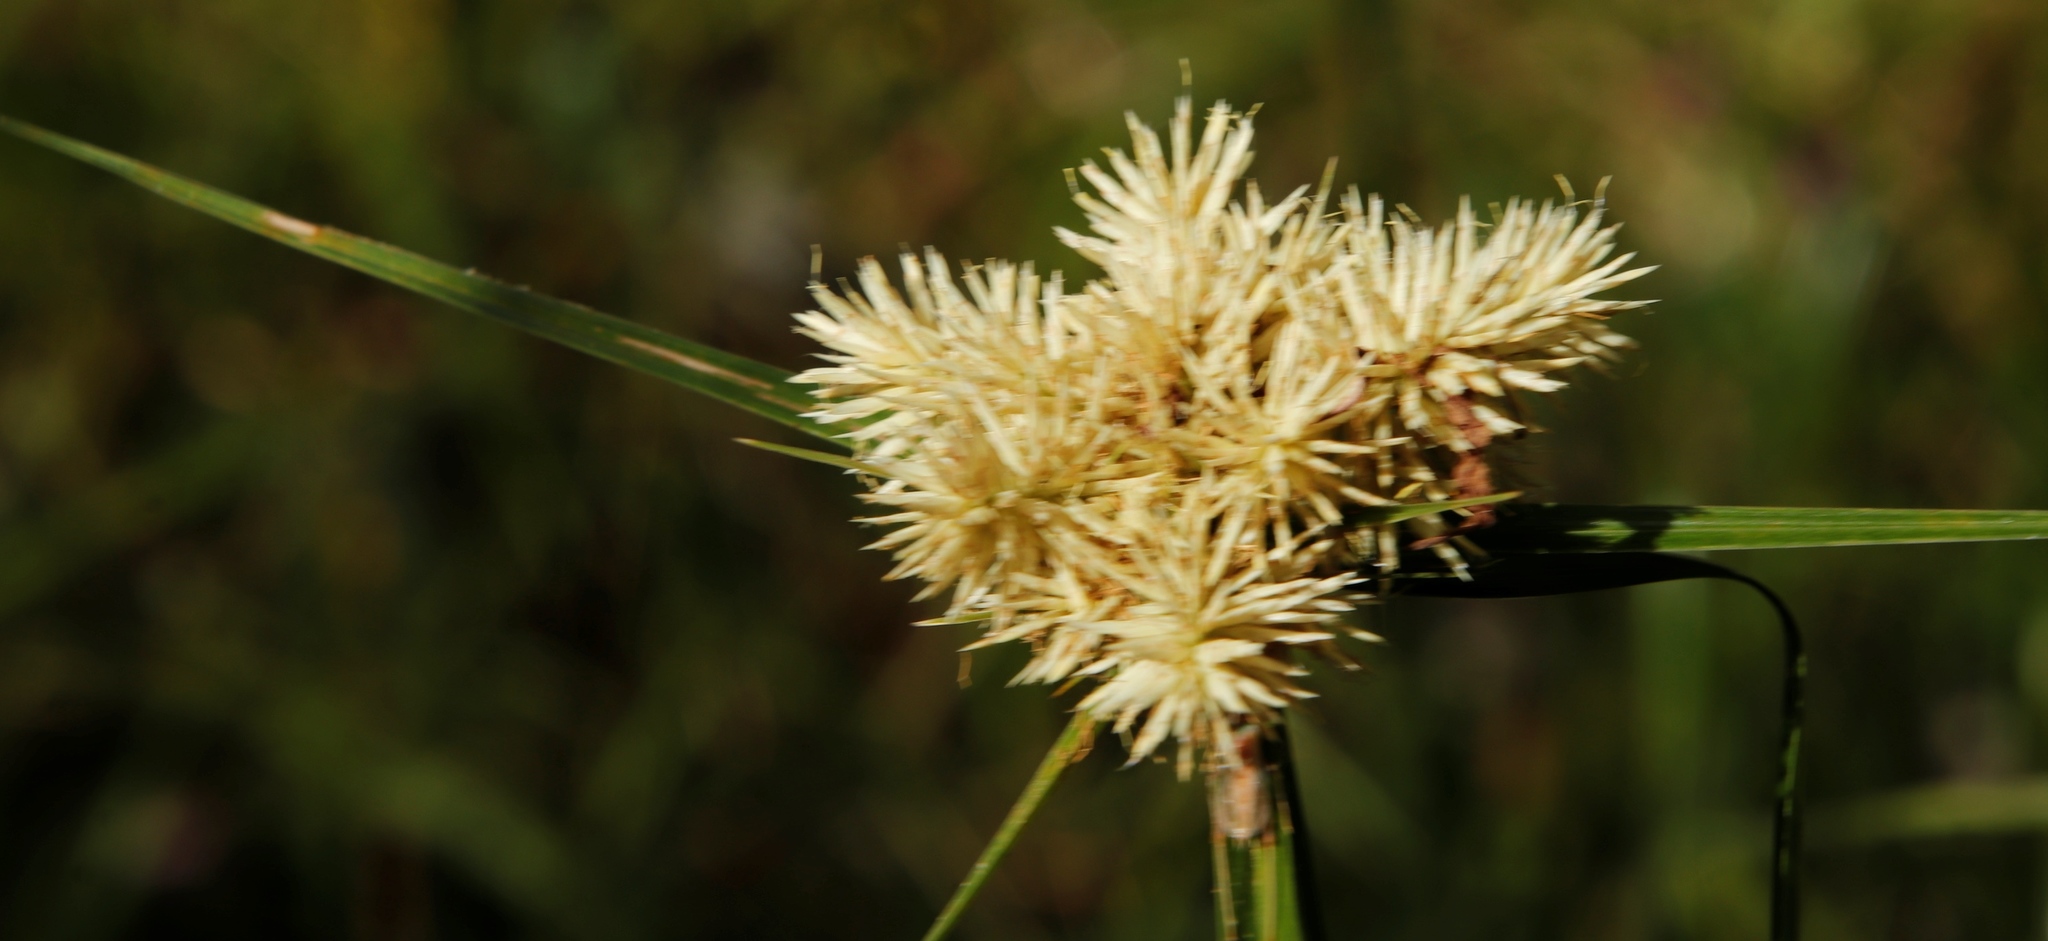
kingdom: Plantae
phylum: Tracheophyta
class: Liliopsida
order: Poales
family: Cyperaceae
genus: Cyperus
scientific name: Cyperus hemisphaericus
